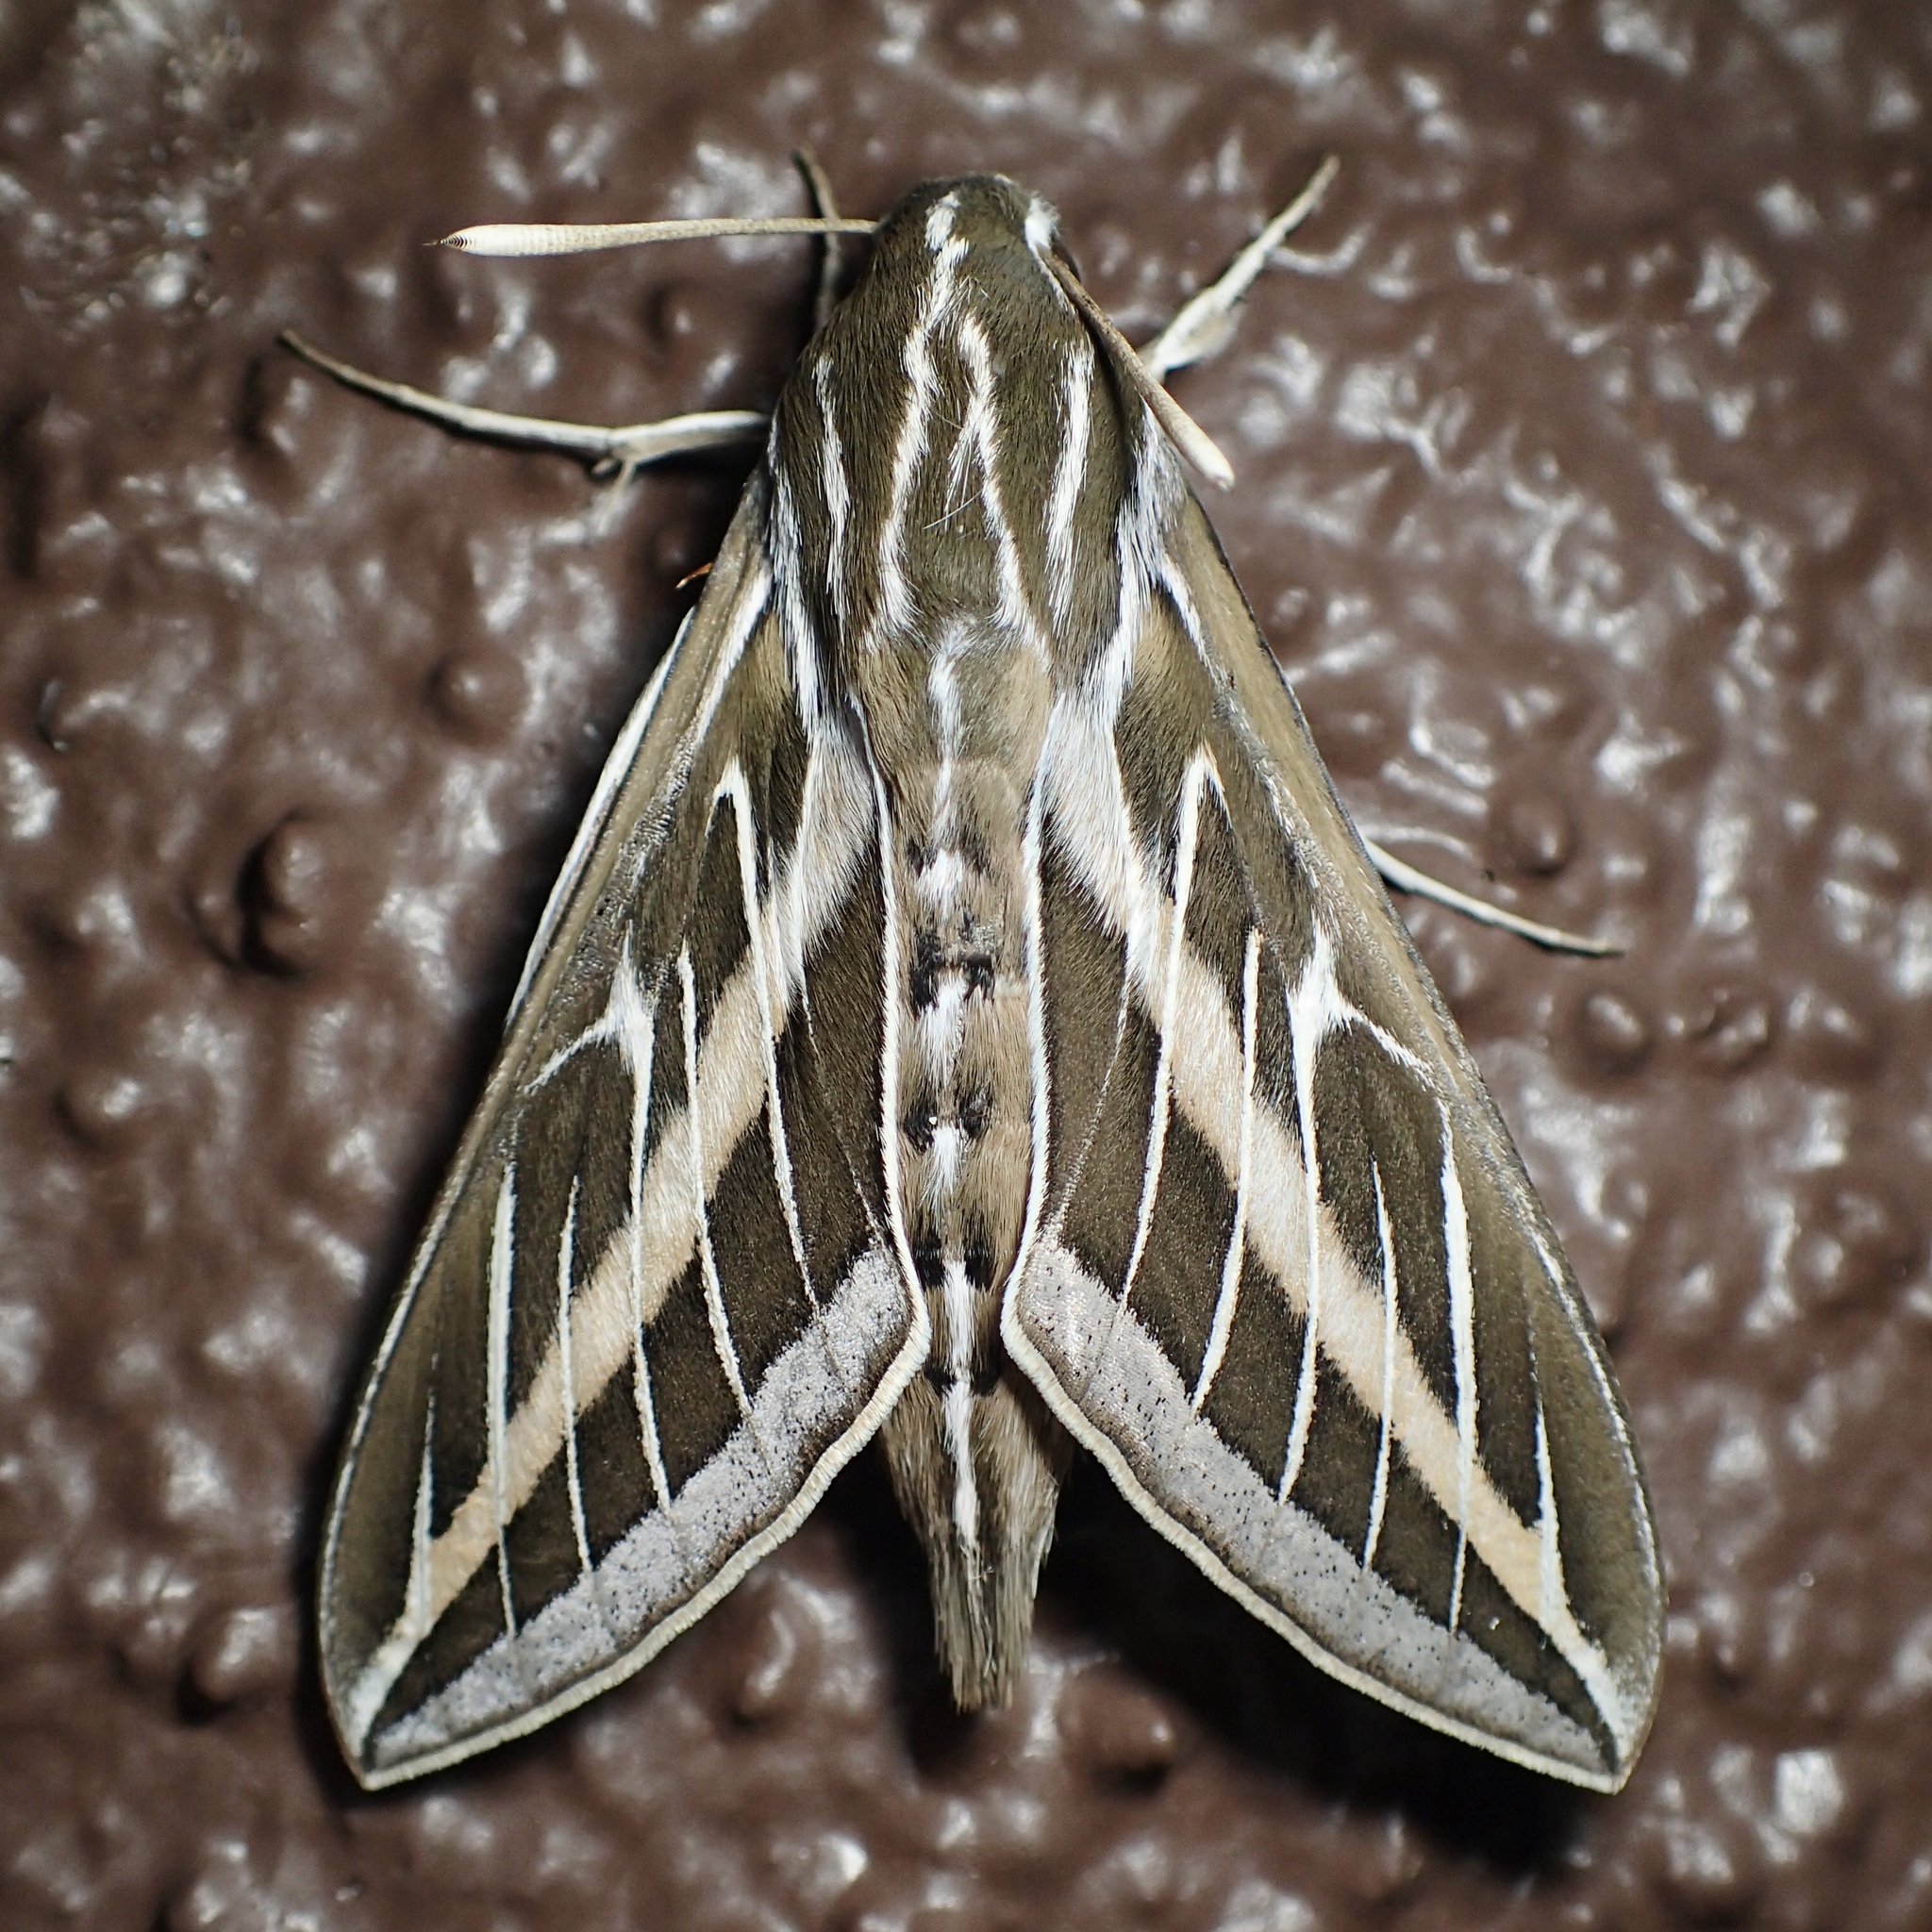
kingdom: Animalia
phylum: Arthropoda
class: Insecta
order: Lepidoptera
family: Sphingidae
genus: Hyles
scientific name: Hyles lineata
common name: White-lined sphinx
